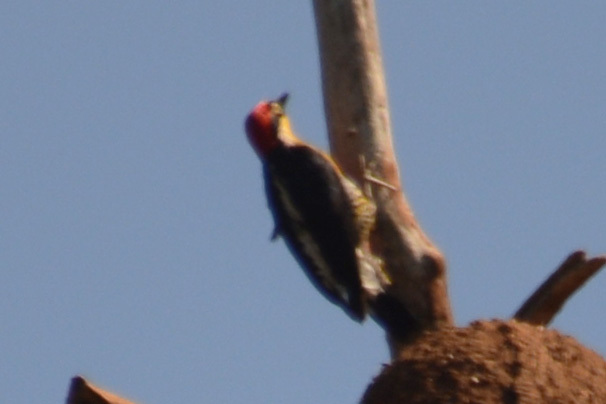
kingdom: Animalia
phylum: Chordata
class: Aves
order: Piciformes
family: Picidae
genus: Melanerpes
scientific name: Melanerpes flavifrons
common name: Yellow-fronted woodpecker
